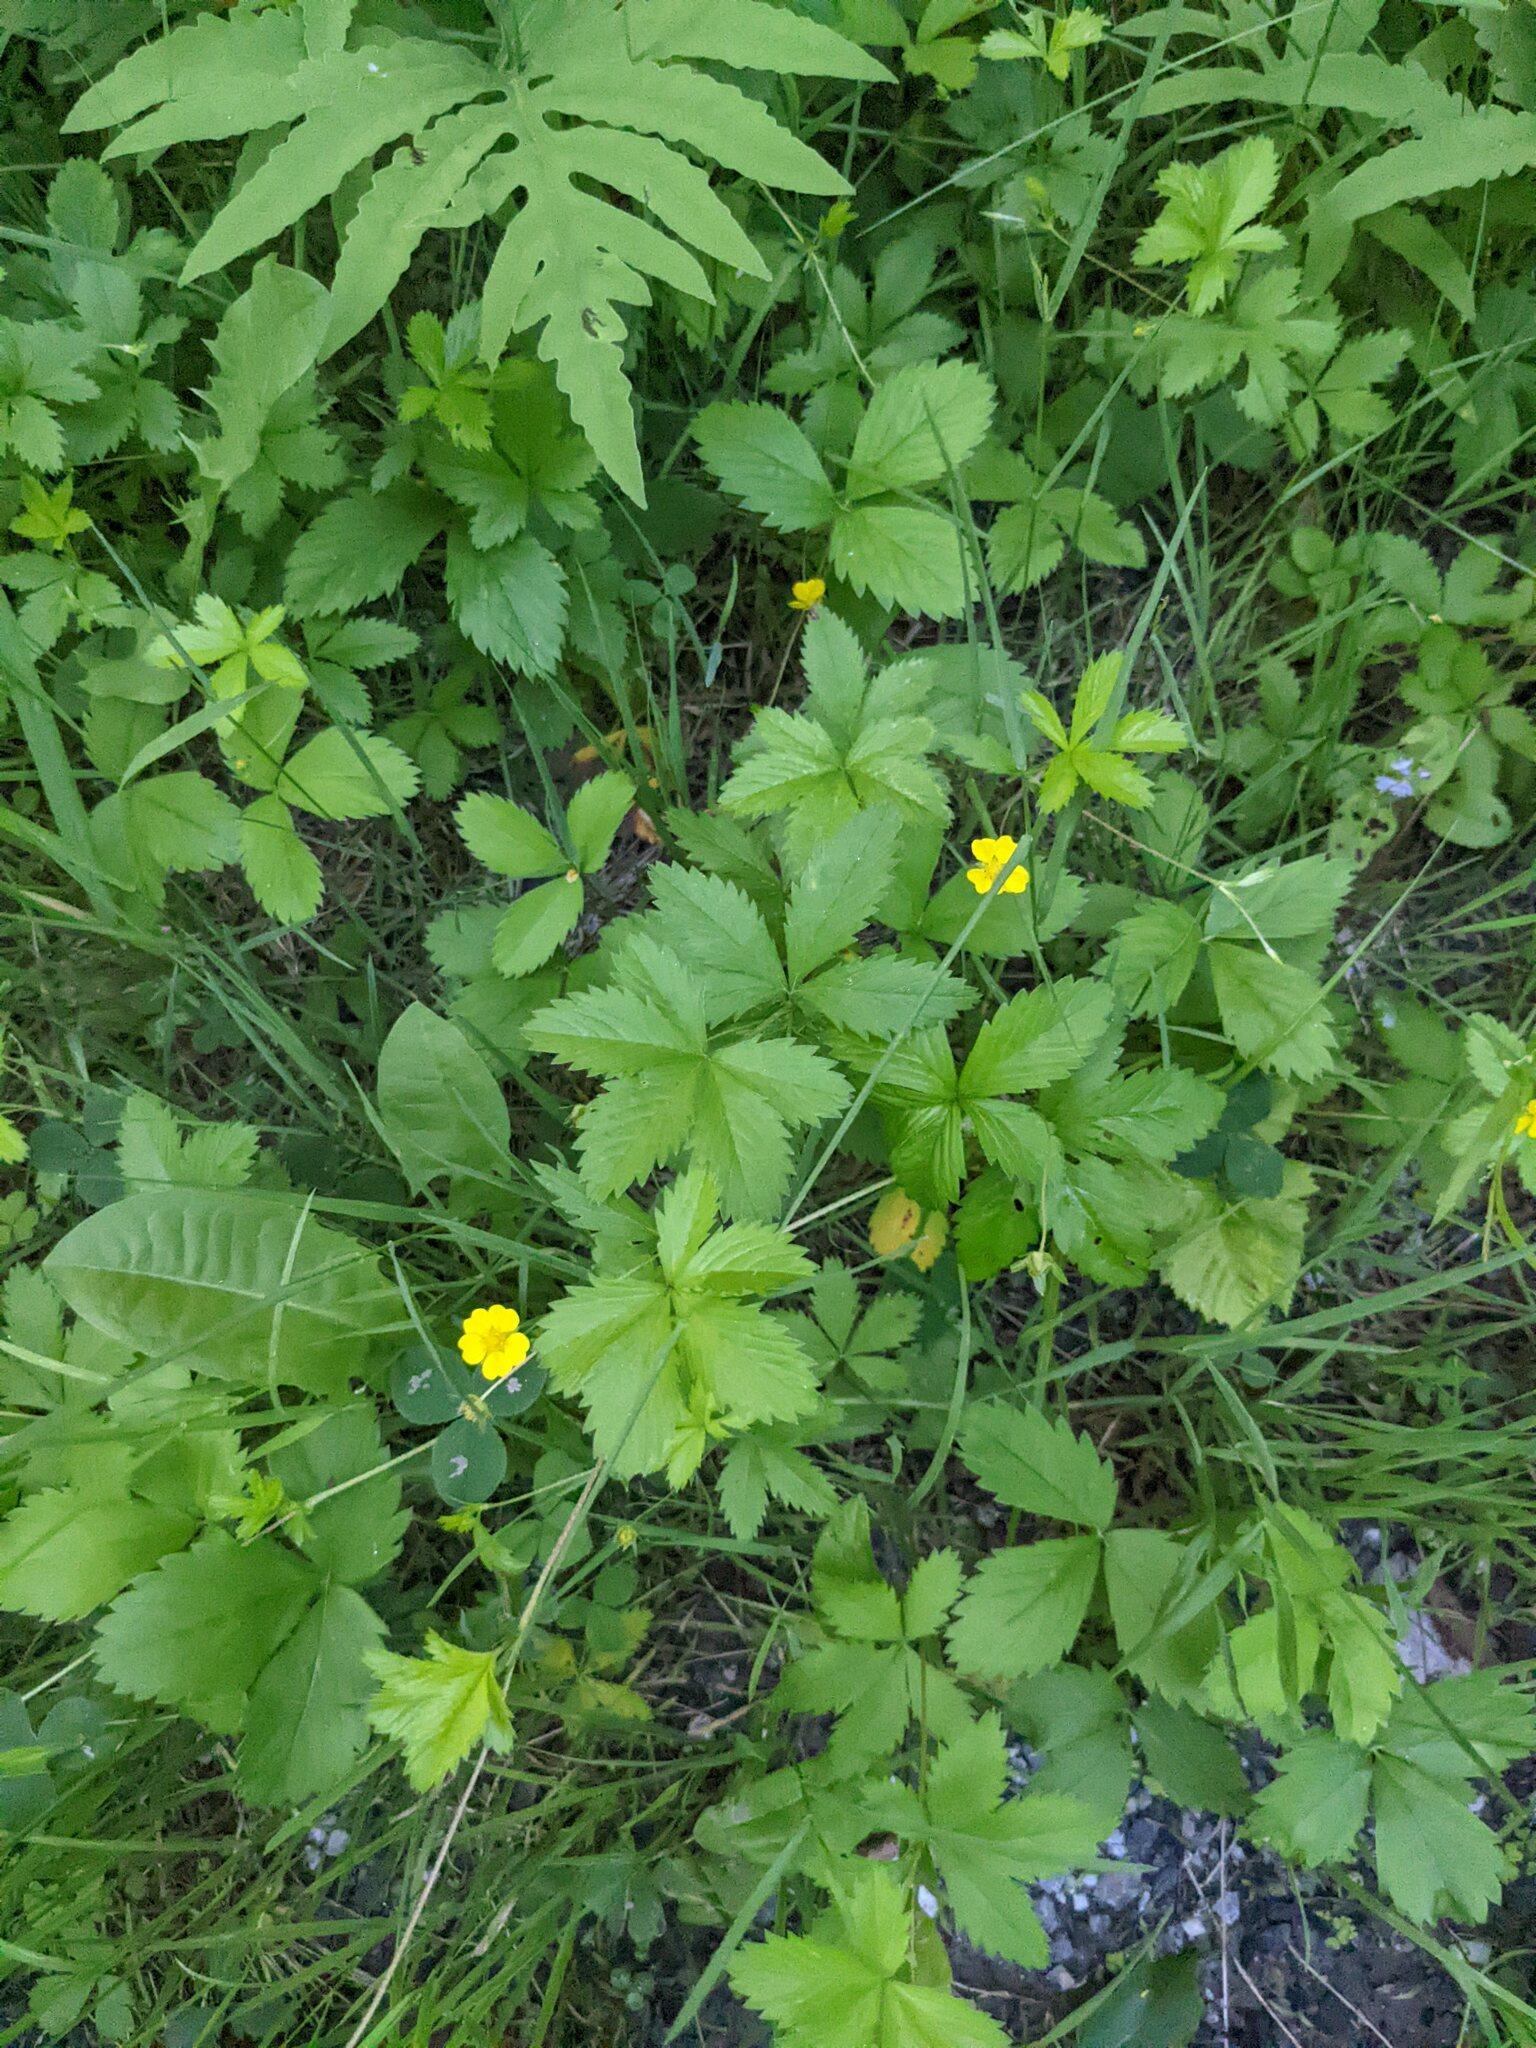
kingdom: Plantae
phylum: Tracheophyta
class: Magnoliopsida
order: Rosales
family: Rosaceae
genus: Potentilla
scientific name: Potentilla simplex
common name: Old field cinquefoil
